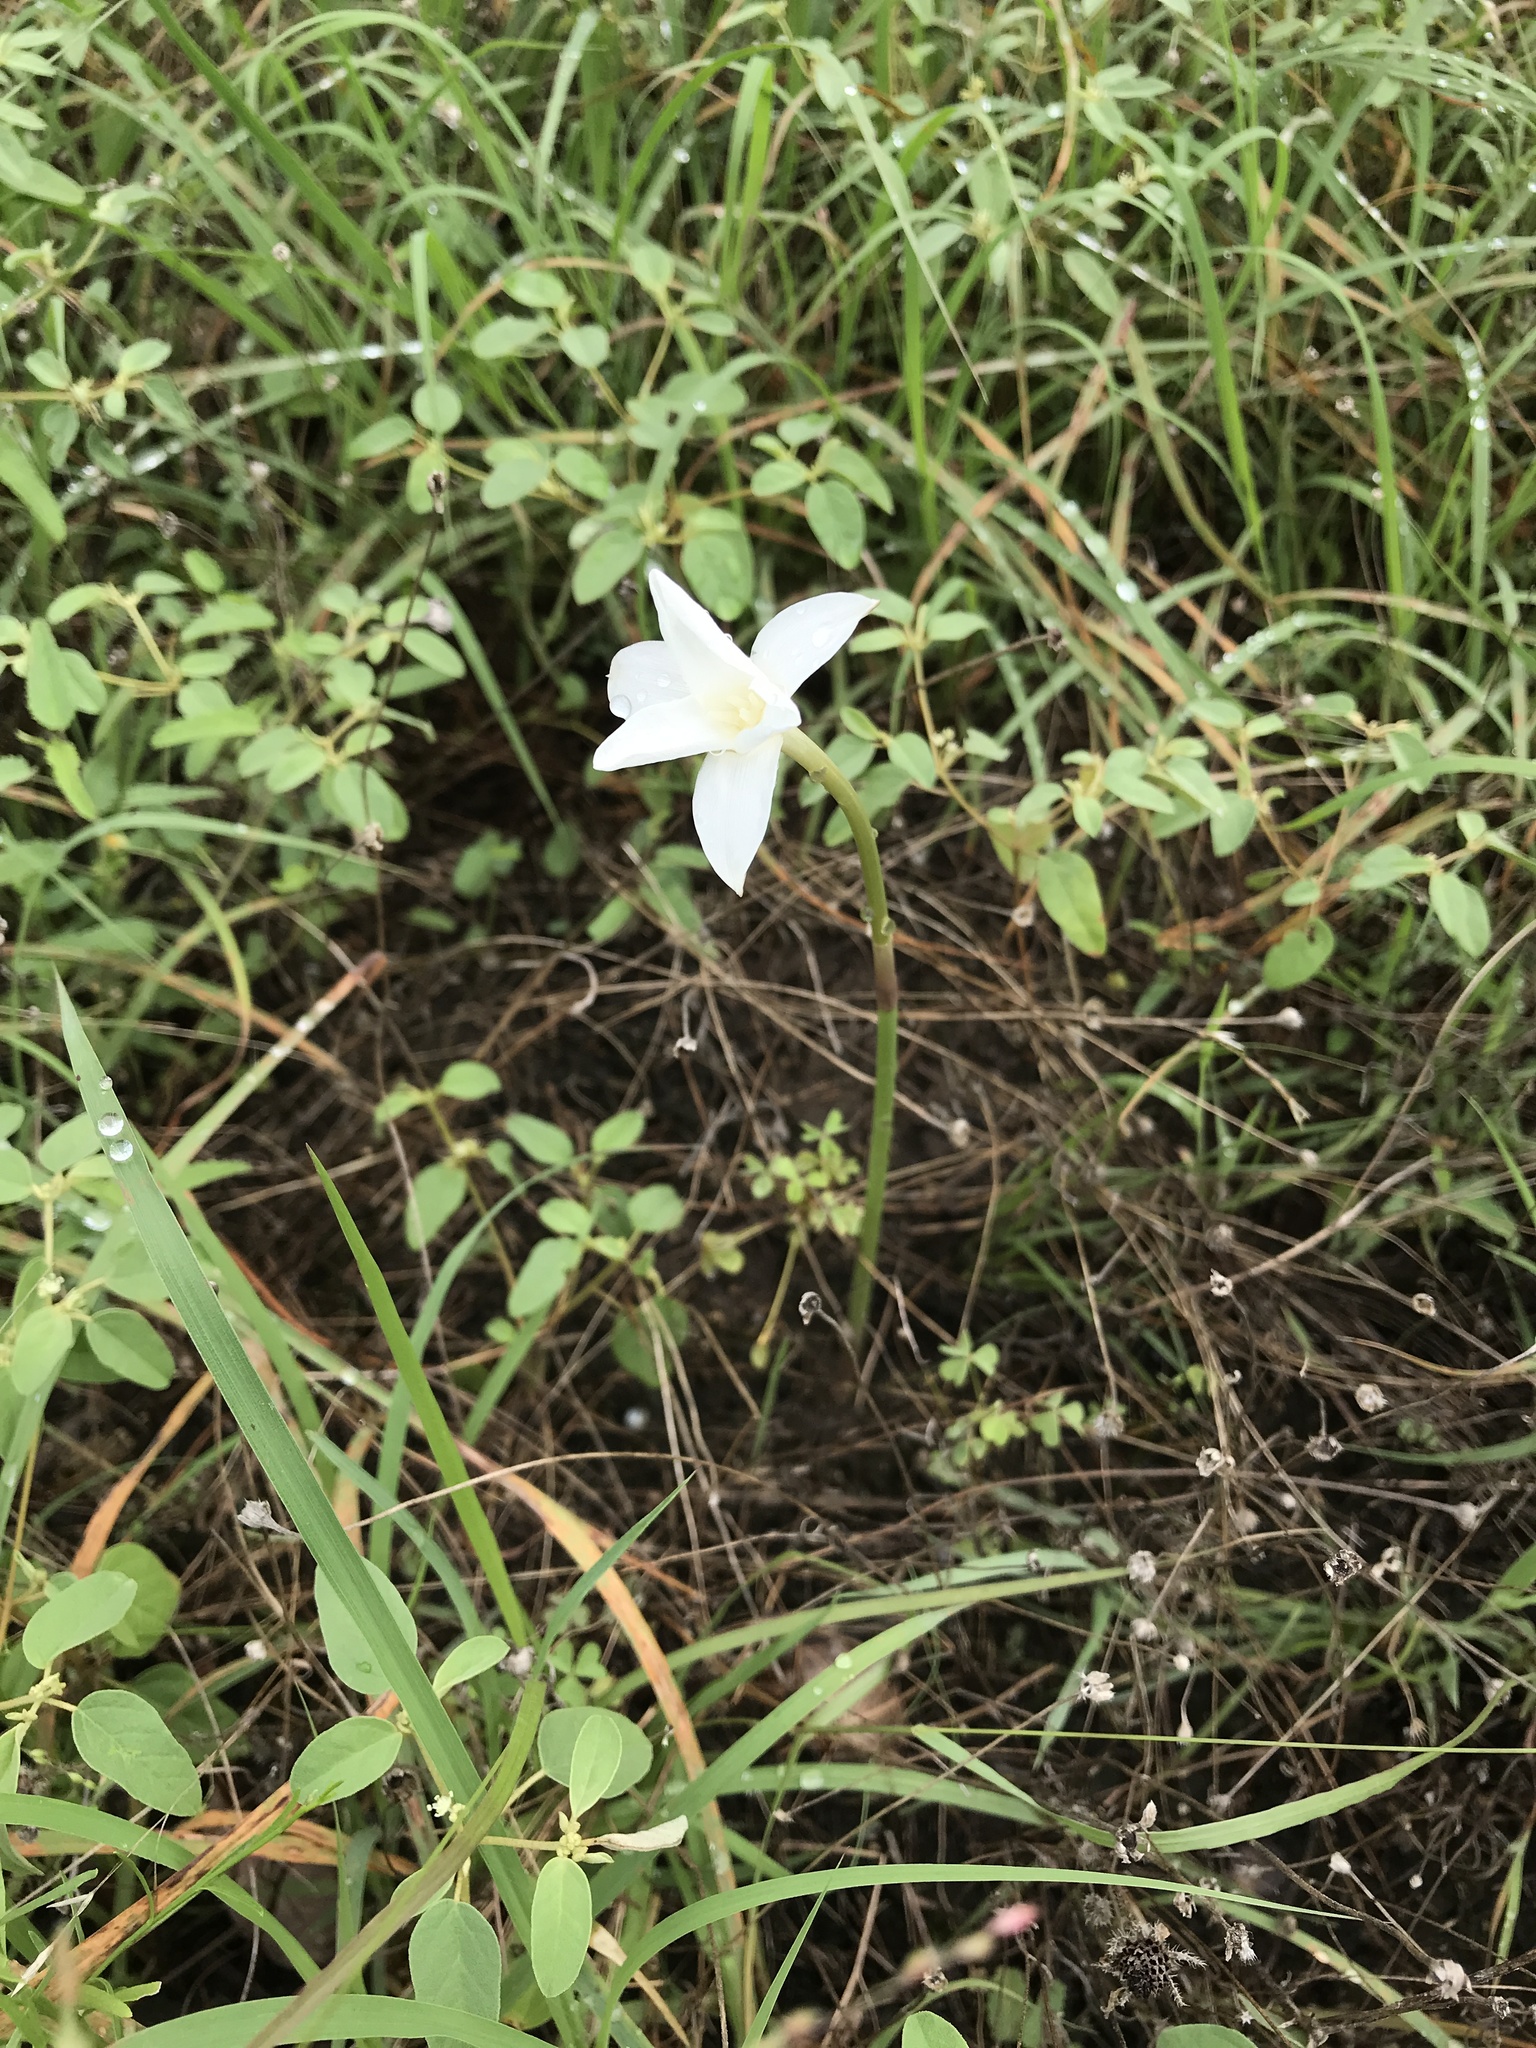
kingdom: Plantae
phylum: Tracheophyta
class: Liliopsida
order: Asparagales
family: Amaryllidaceae
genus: Zephyranthes
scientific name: Zephyranthes chlorosolen
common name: Evening rain-lily
